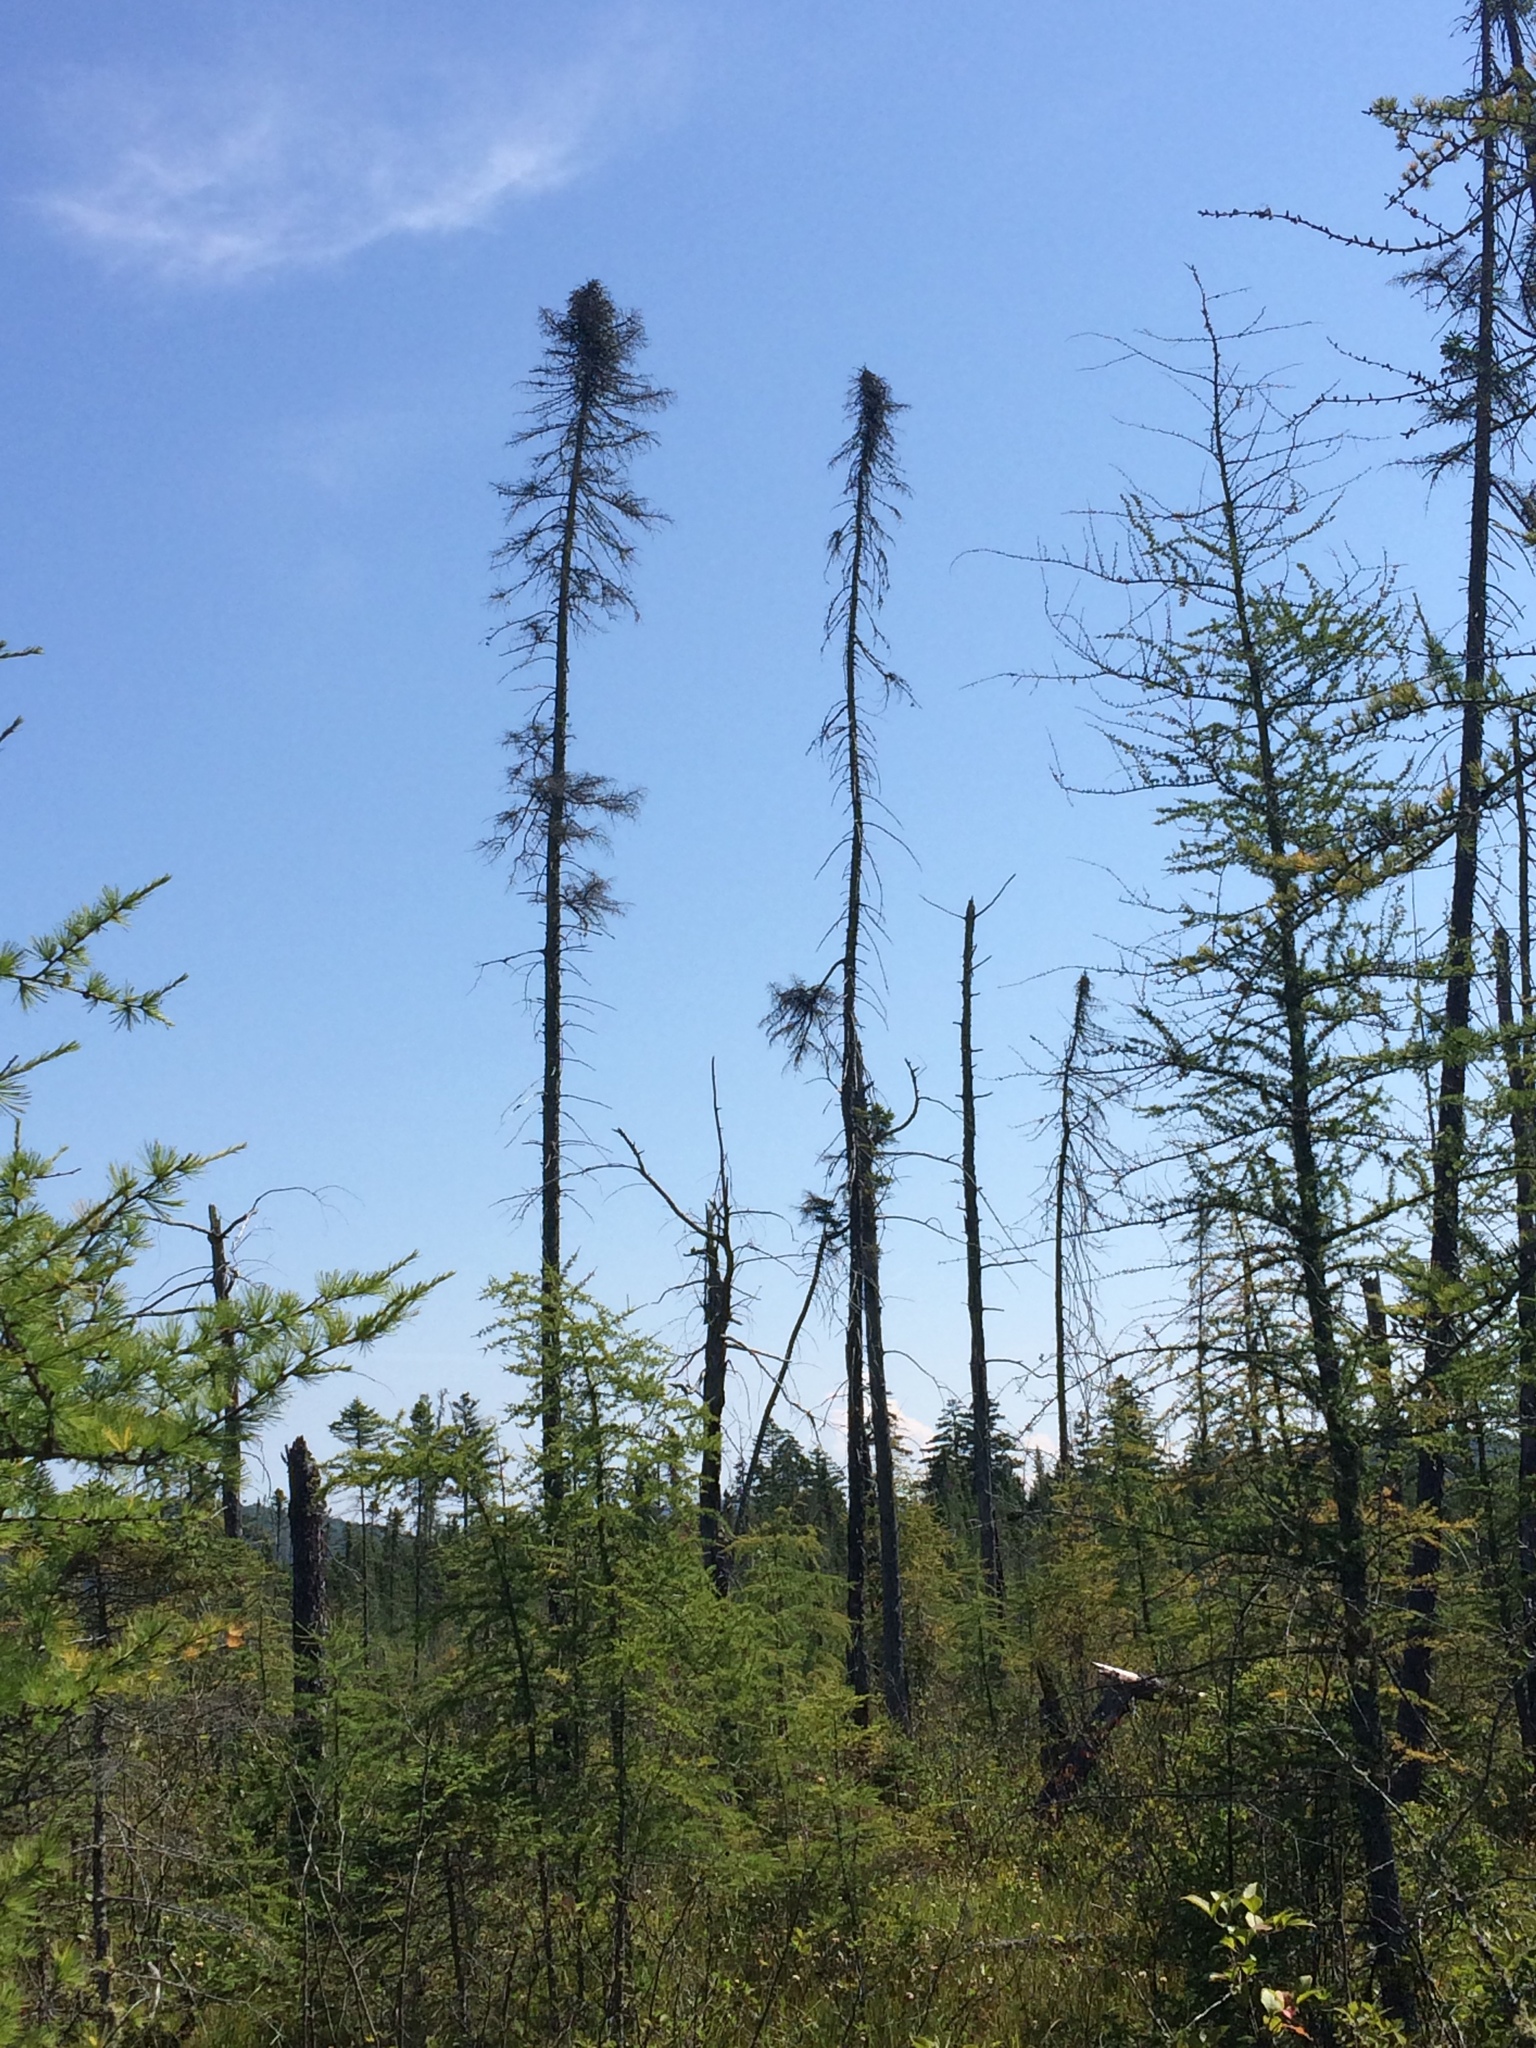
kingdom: Plantae
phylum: Tracheophyta
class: Pinopsida
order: Pinales
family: Pinaceae
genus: Picea
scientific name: Picea mariana
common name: Black spruce
